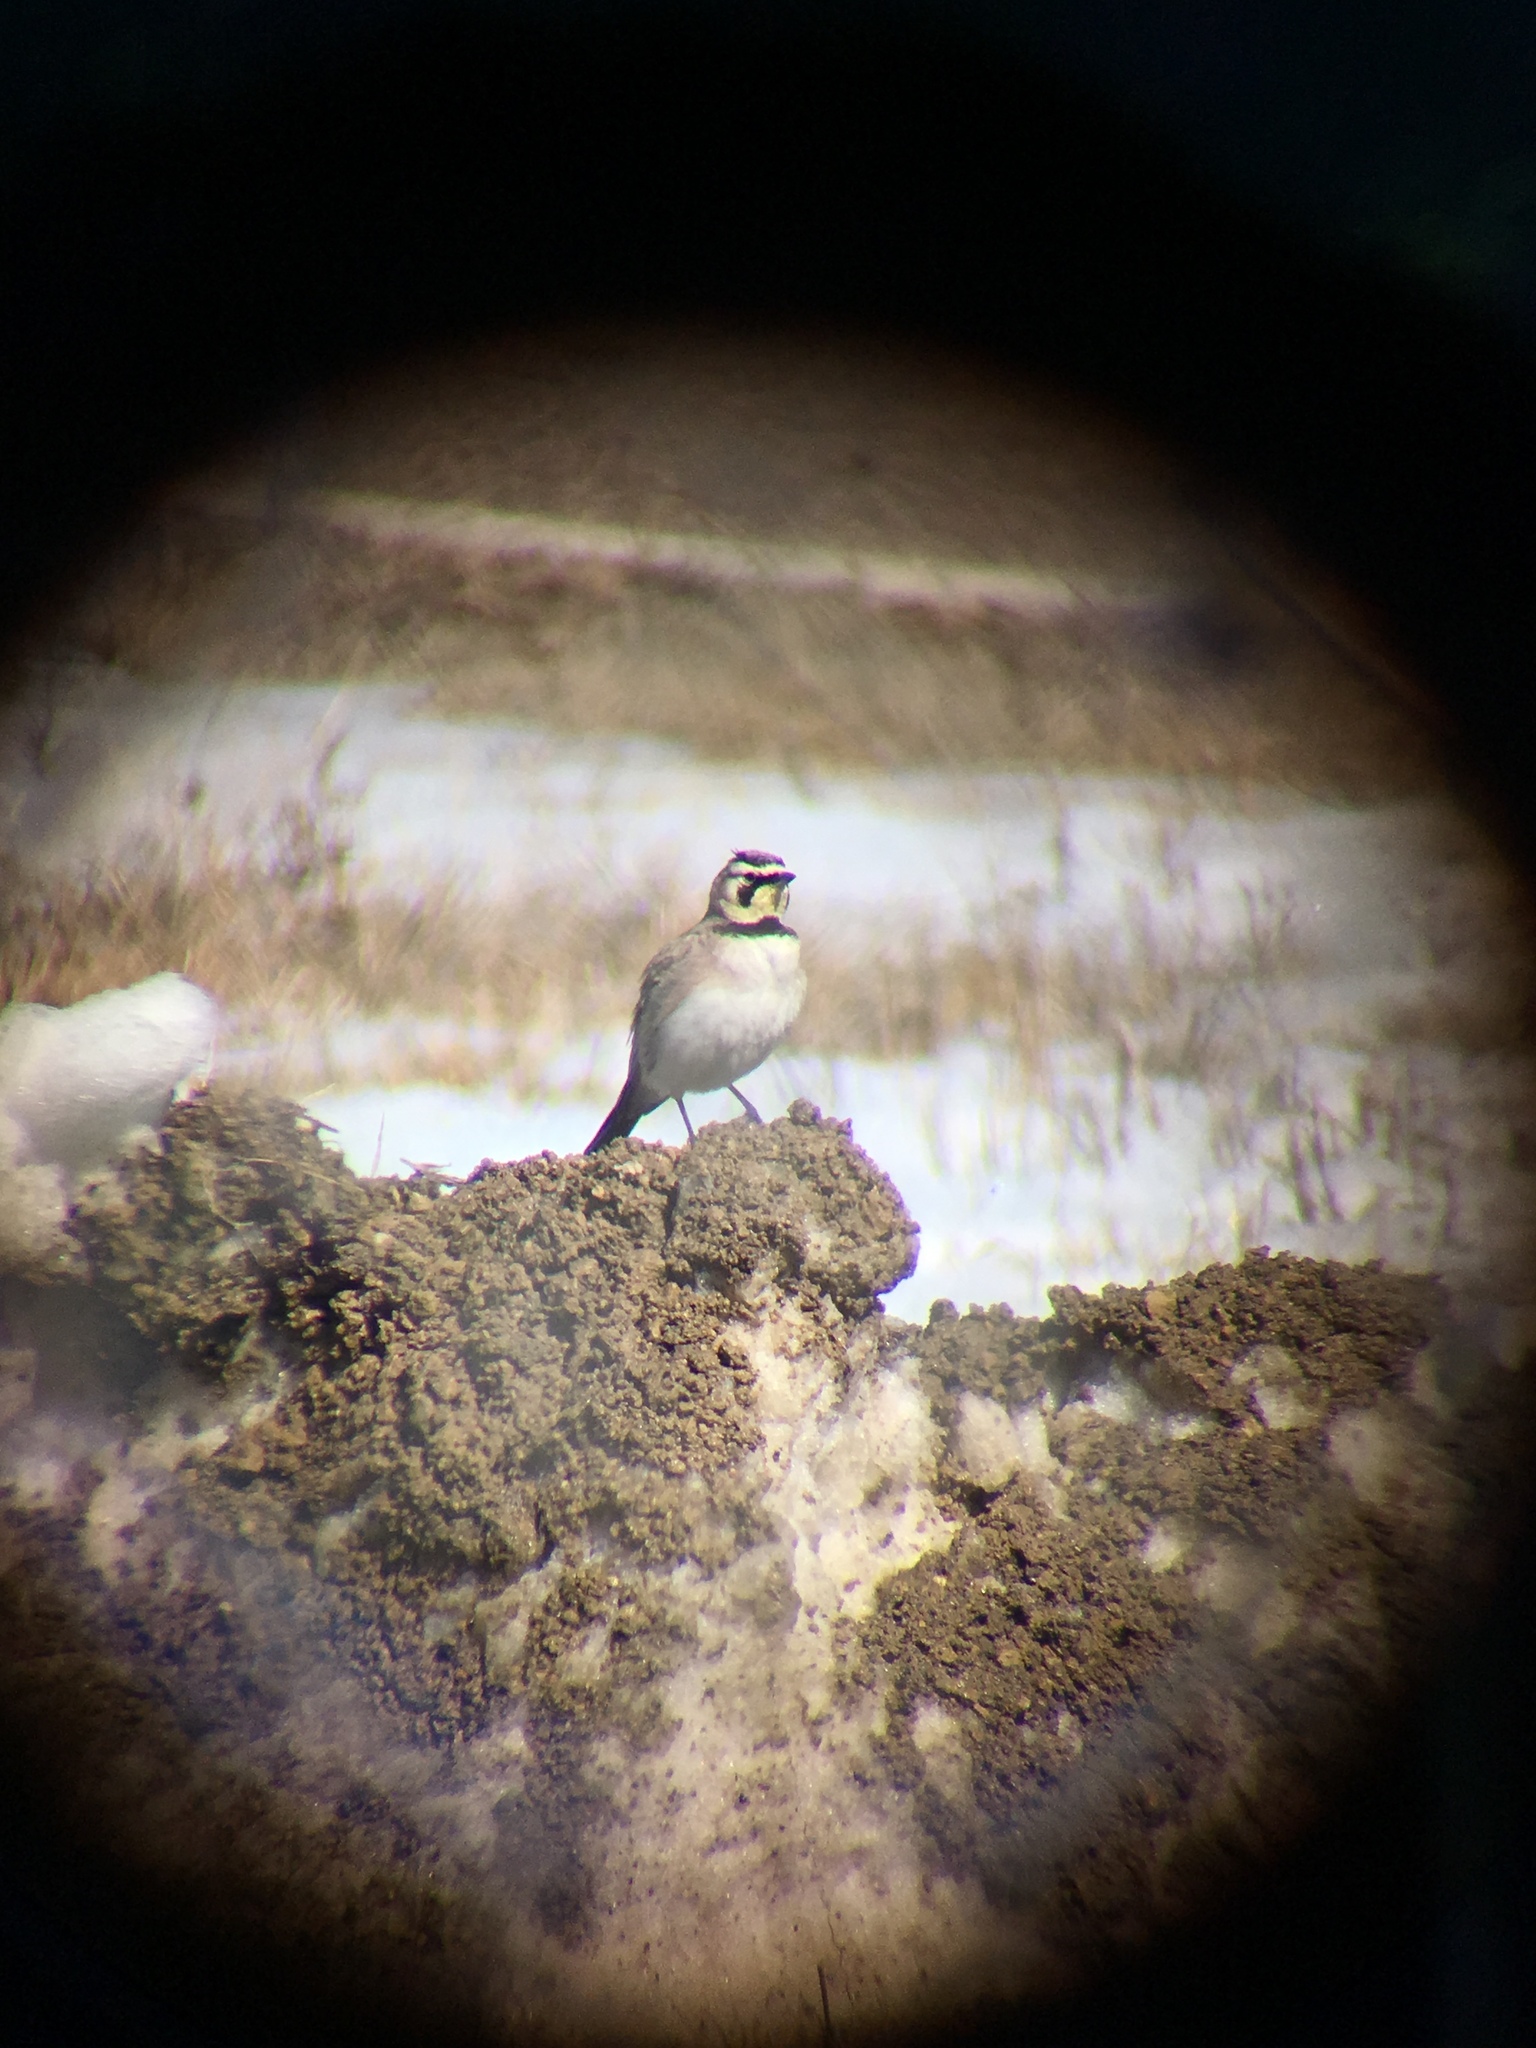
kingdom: Animalia
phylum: Chordata
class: Aves
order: Passeriformes
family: Alaudidae
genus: Eremophila
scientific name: Eremophila alpestris
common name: Horned lark
